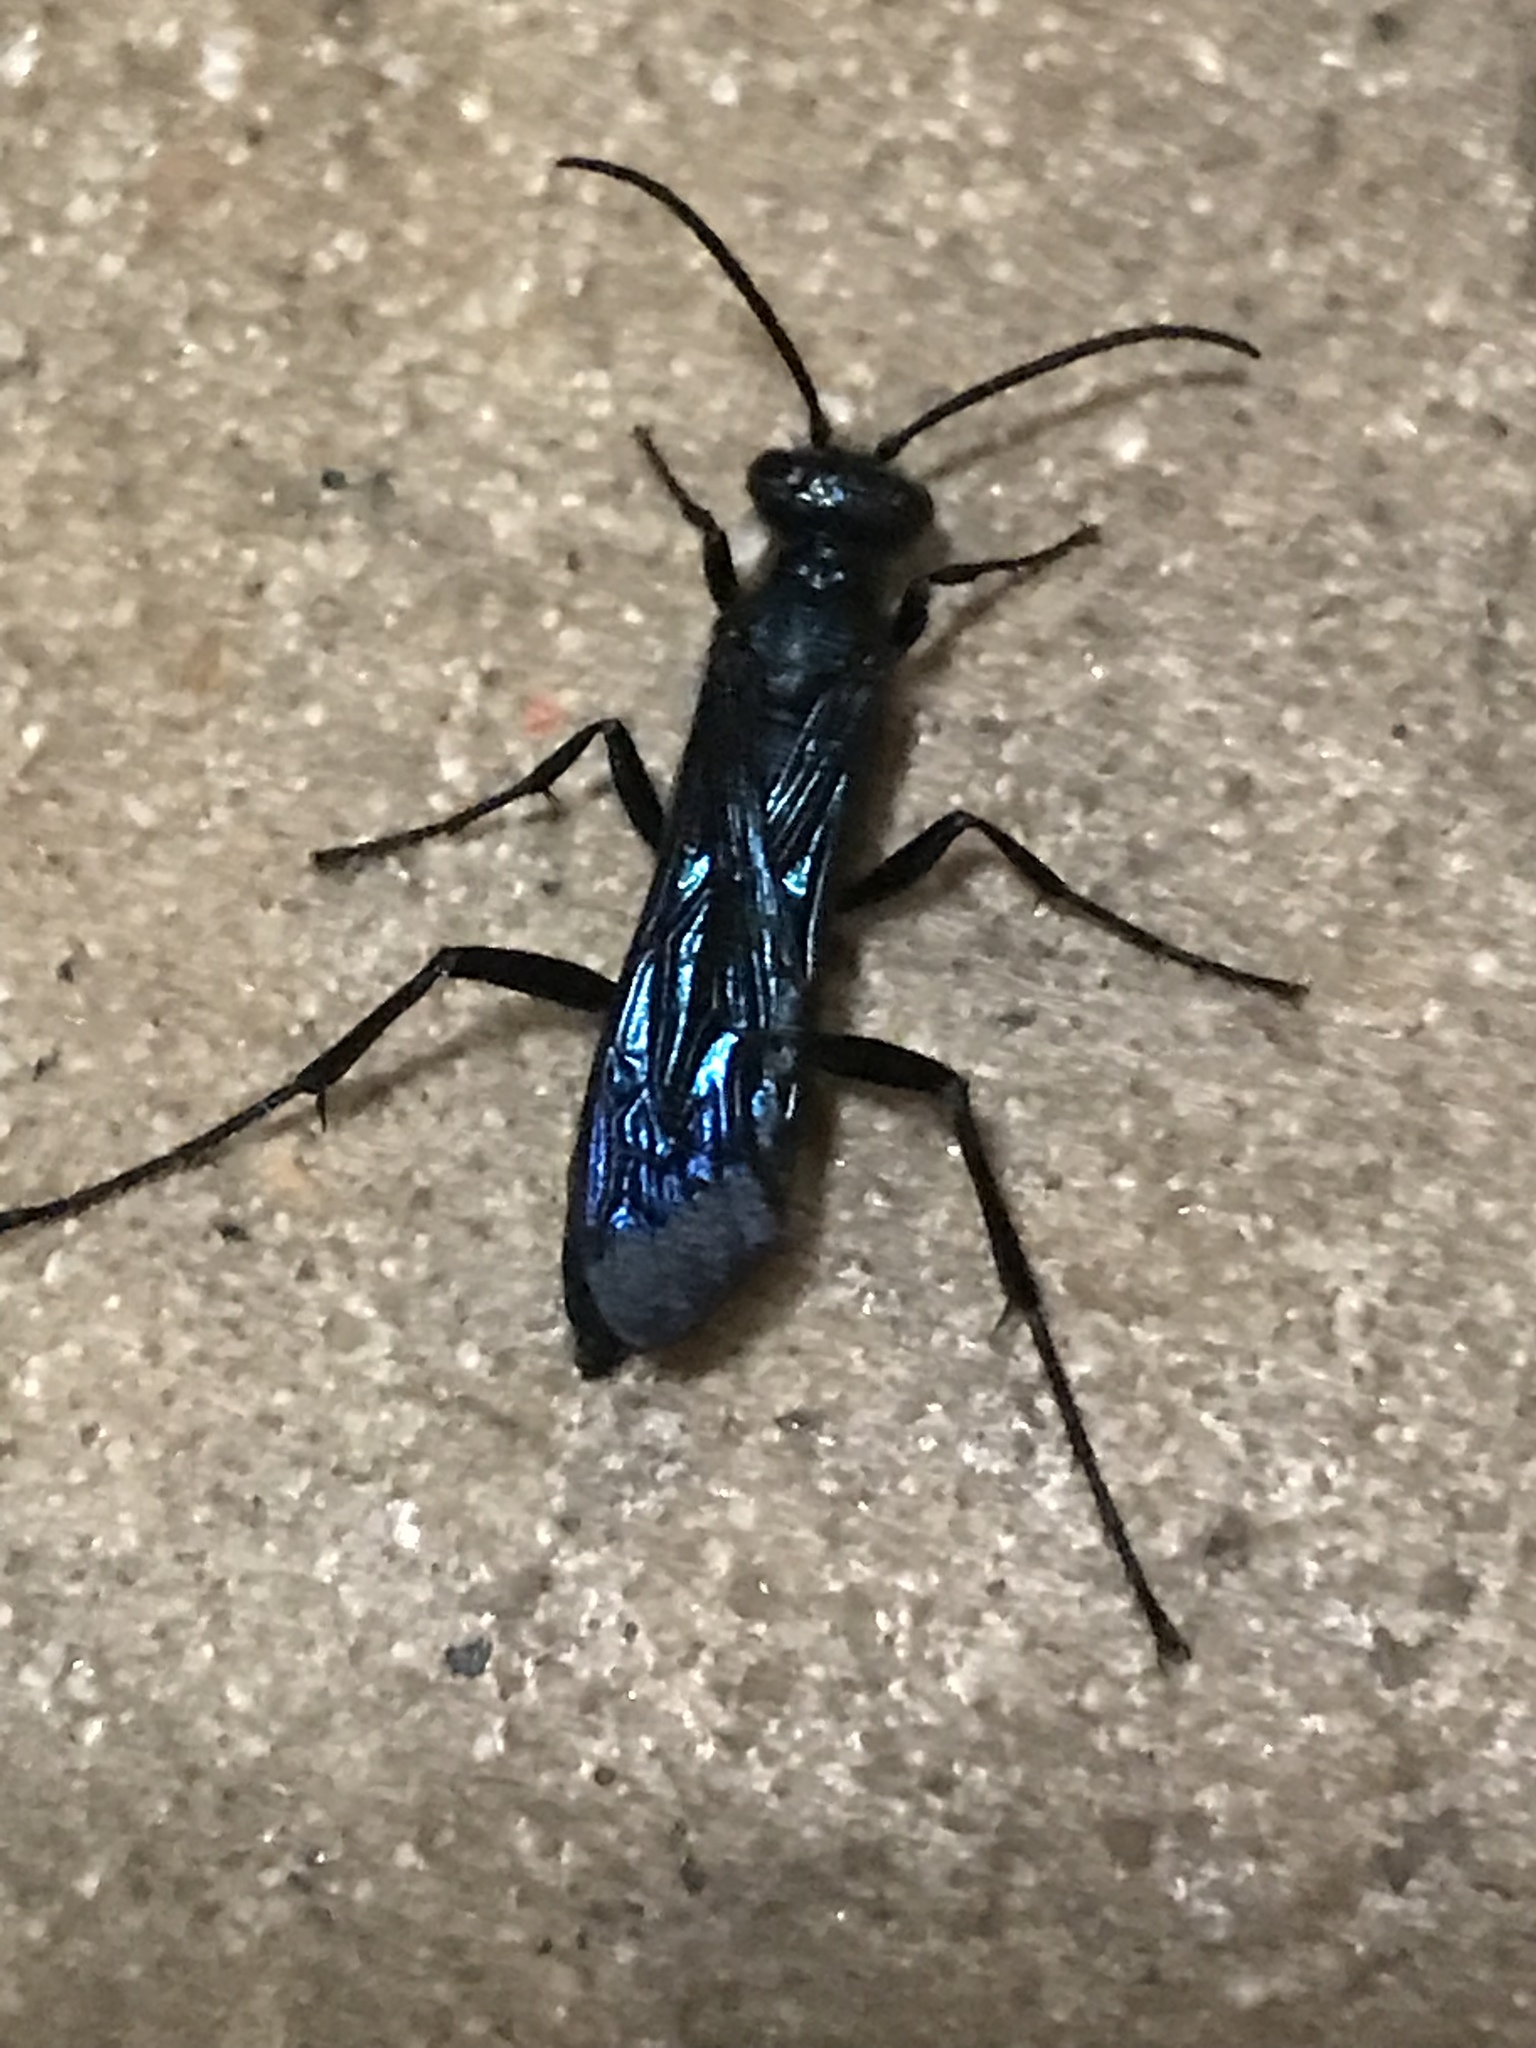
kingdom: Animalia
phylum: Arthropoda
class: Insecta
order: Hymenoptera
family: Sphecidae
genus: Chalybion
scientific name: Chalybion californicum
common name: Mud dauber
